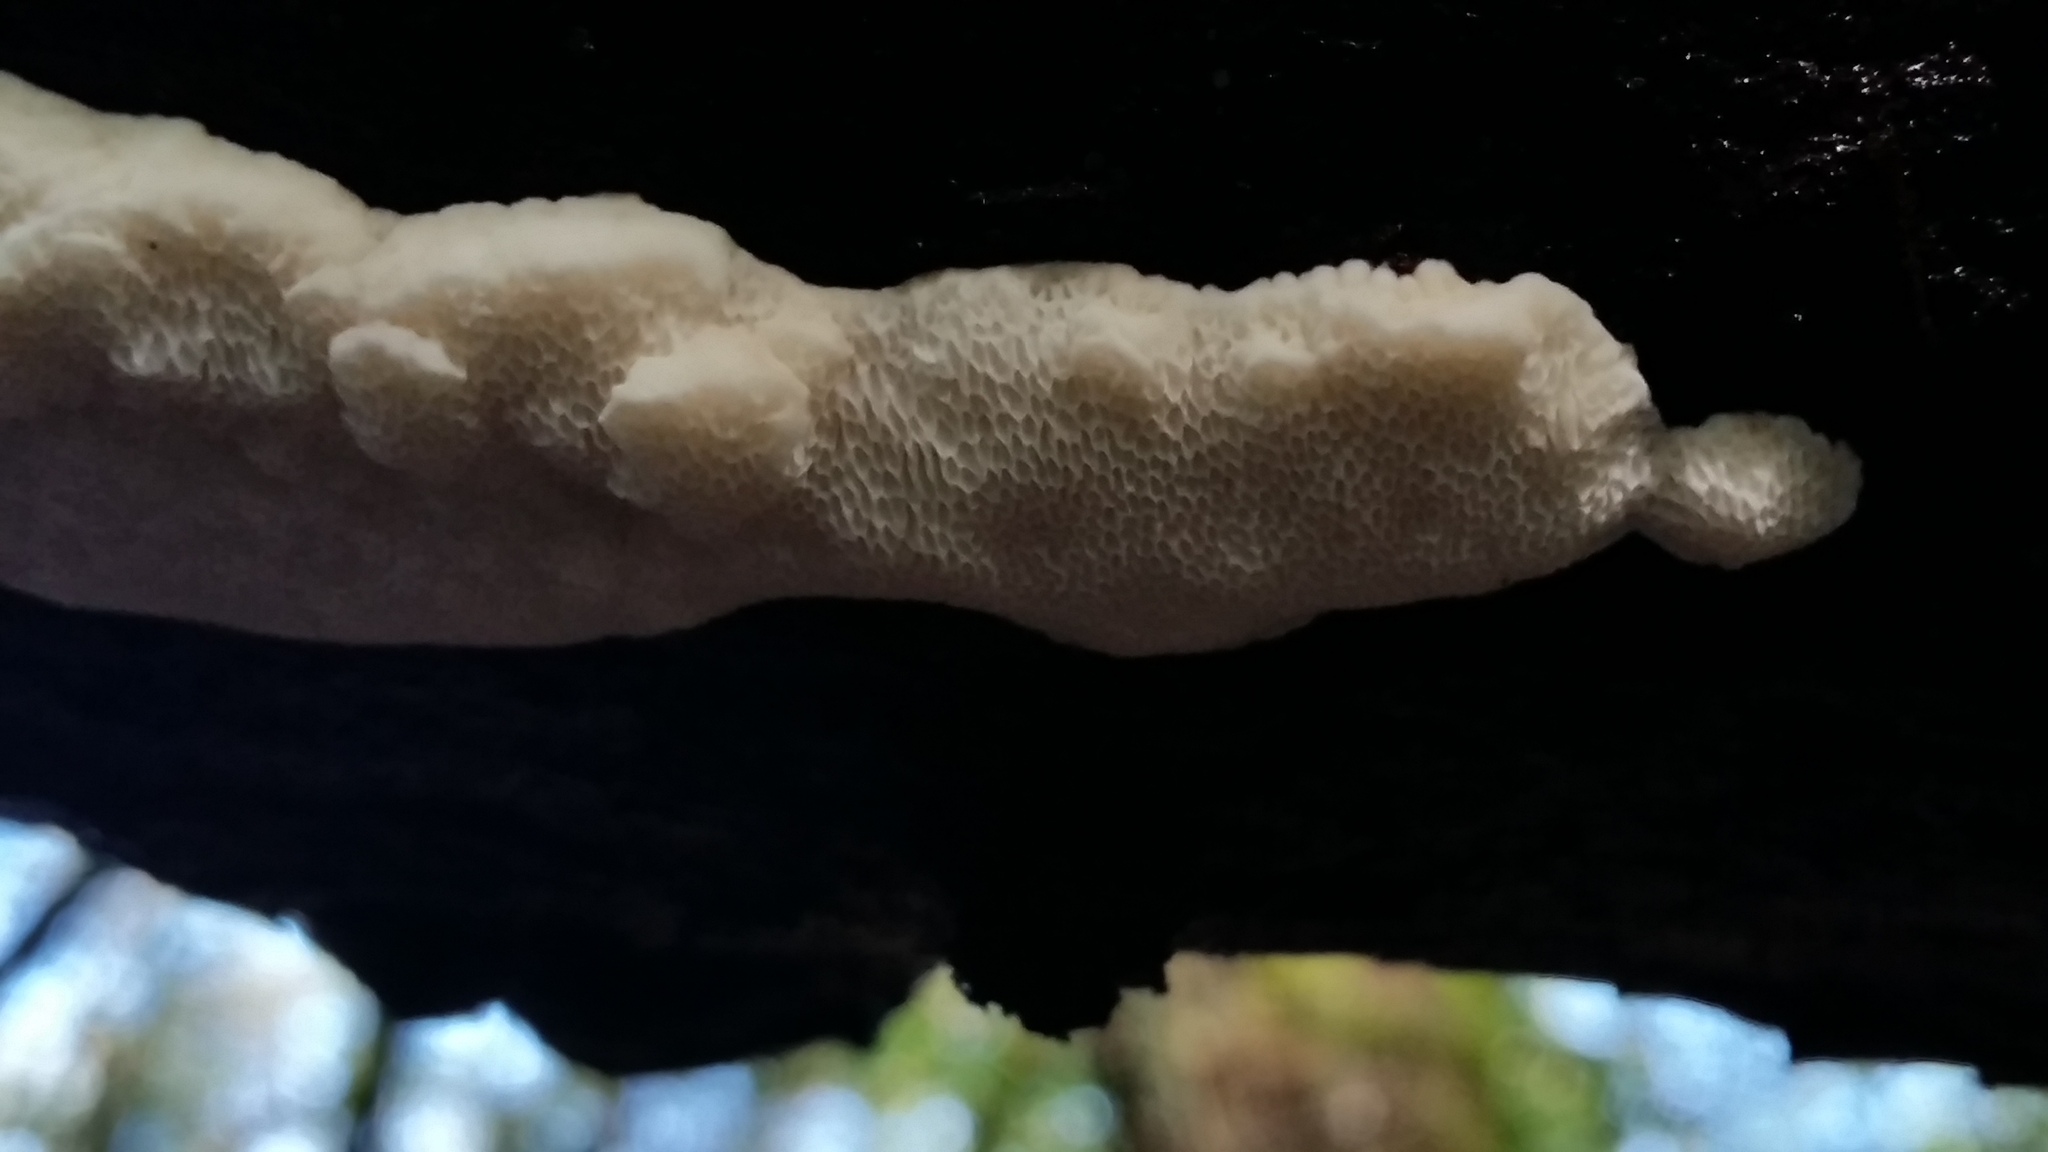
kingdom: Fungi
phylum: Basidiomycota
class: Agaricomycetes
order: Polyporales
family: Fomitopsidaceae
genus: Fomitopsis
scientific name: Fomitopsis
